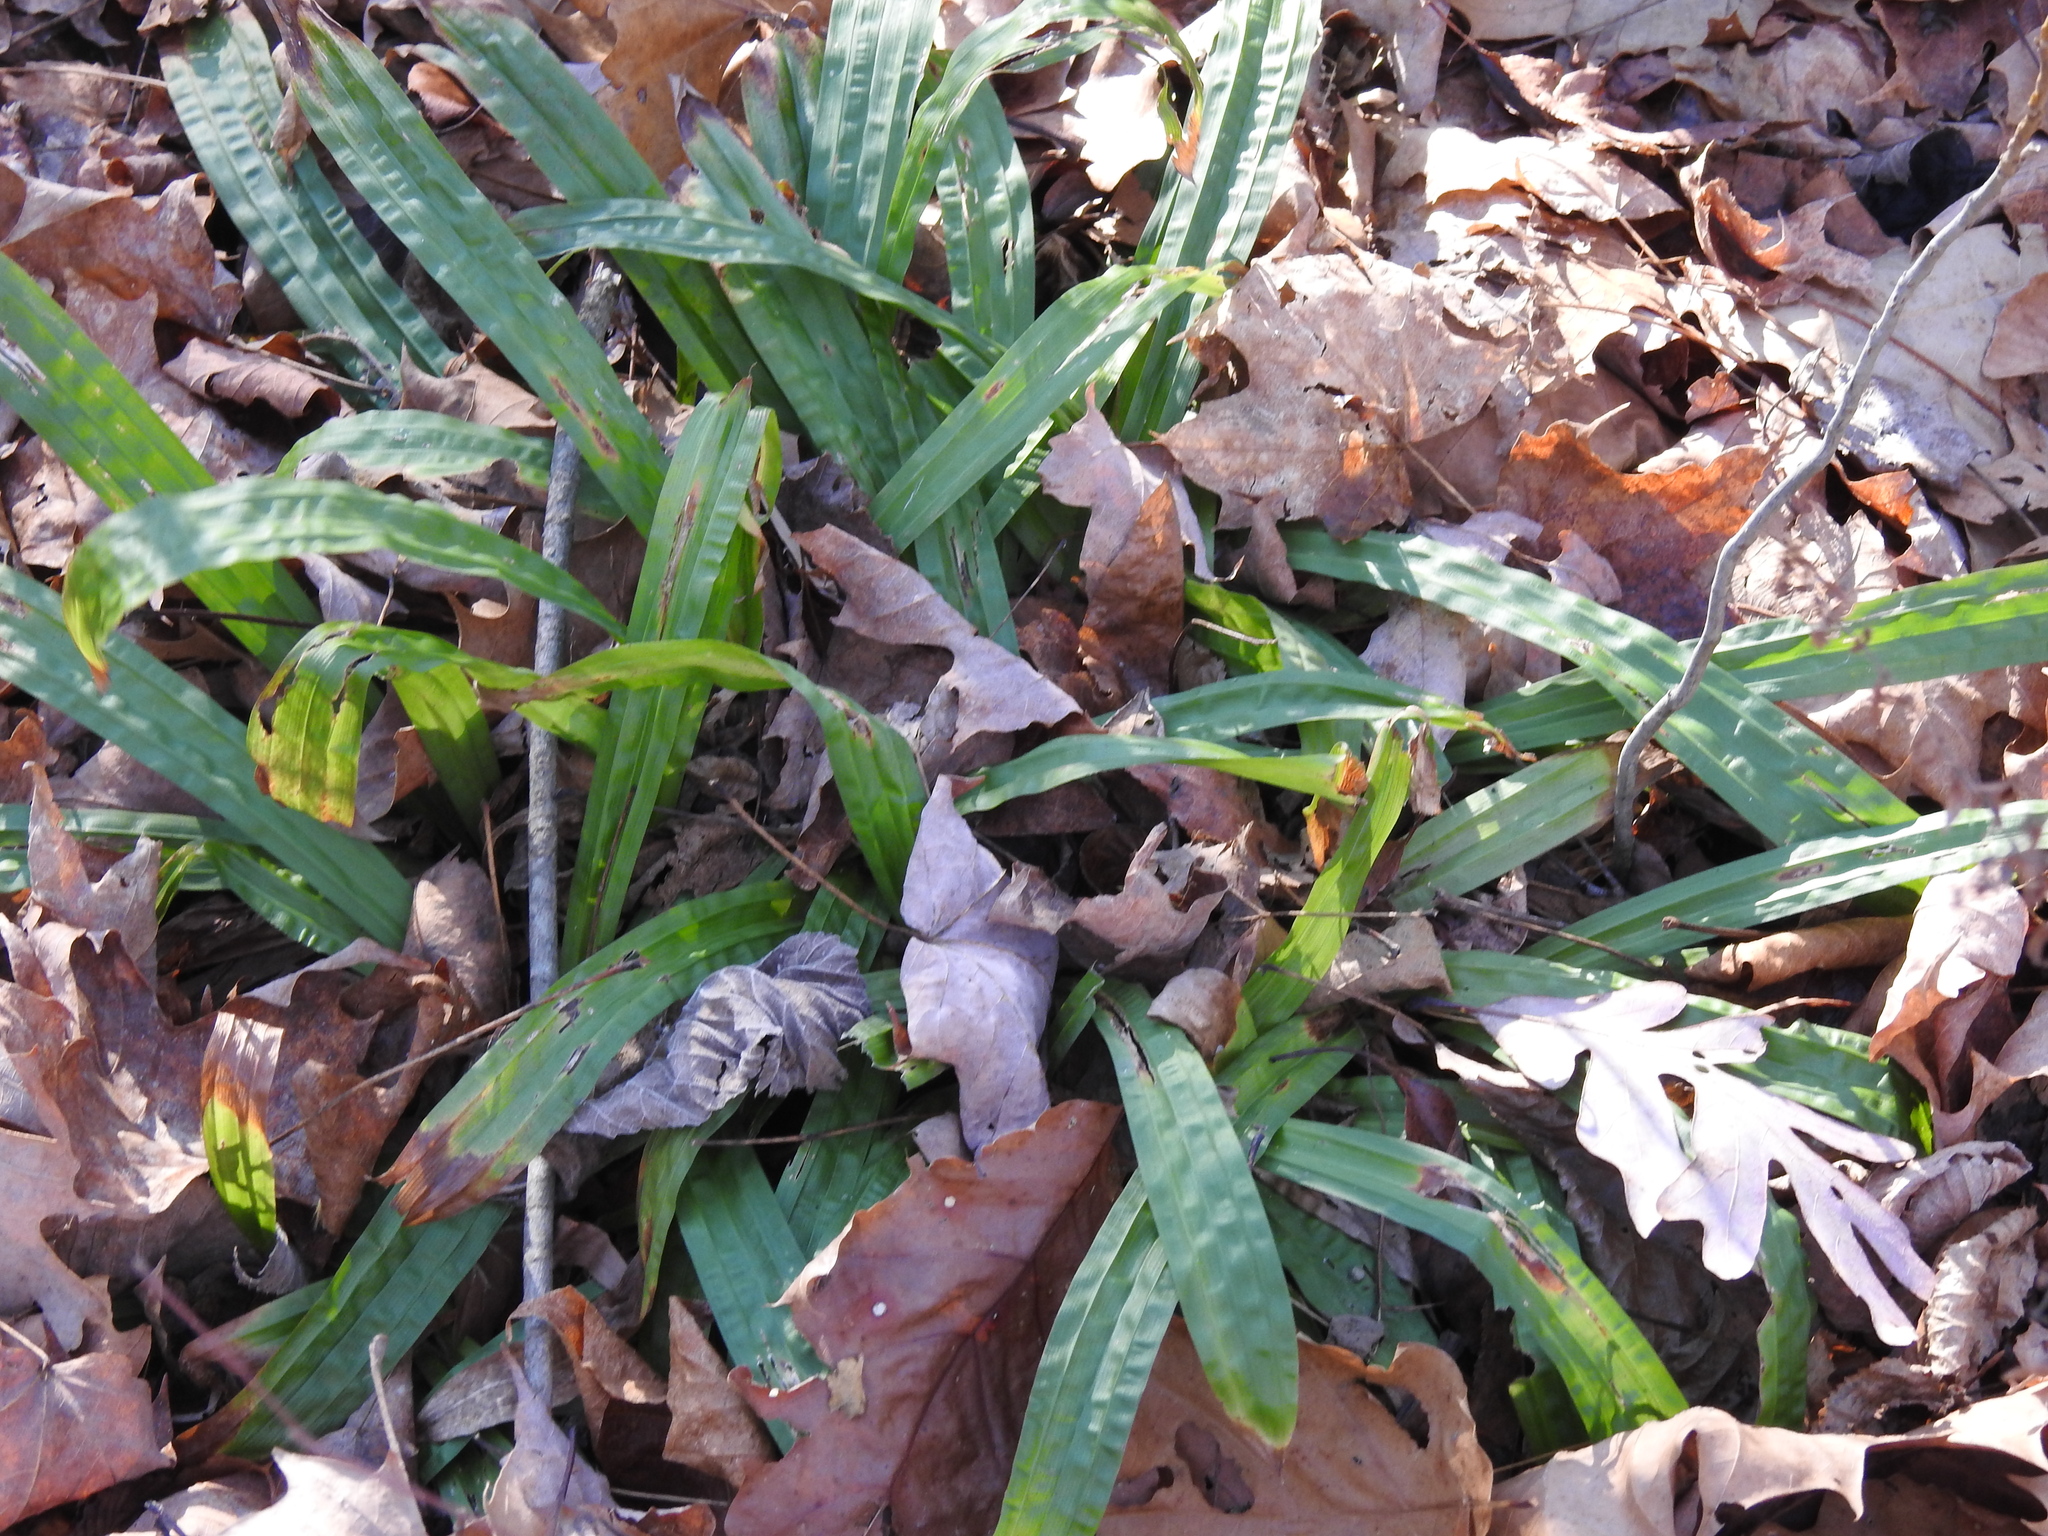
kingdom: Plantae
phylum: Tracheophyta
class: Liliopsida
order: Poales
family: Cyperaceae
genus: Carex
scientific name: Carex plantaginea
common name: Plantain-leaved sedge
